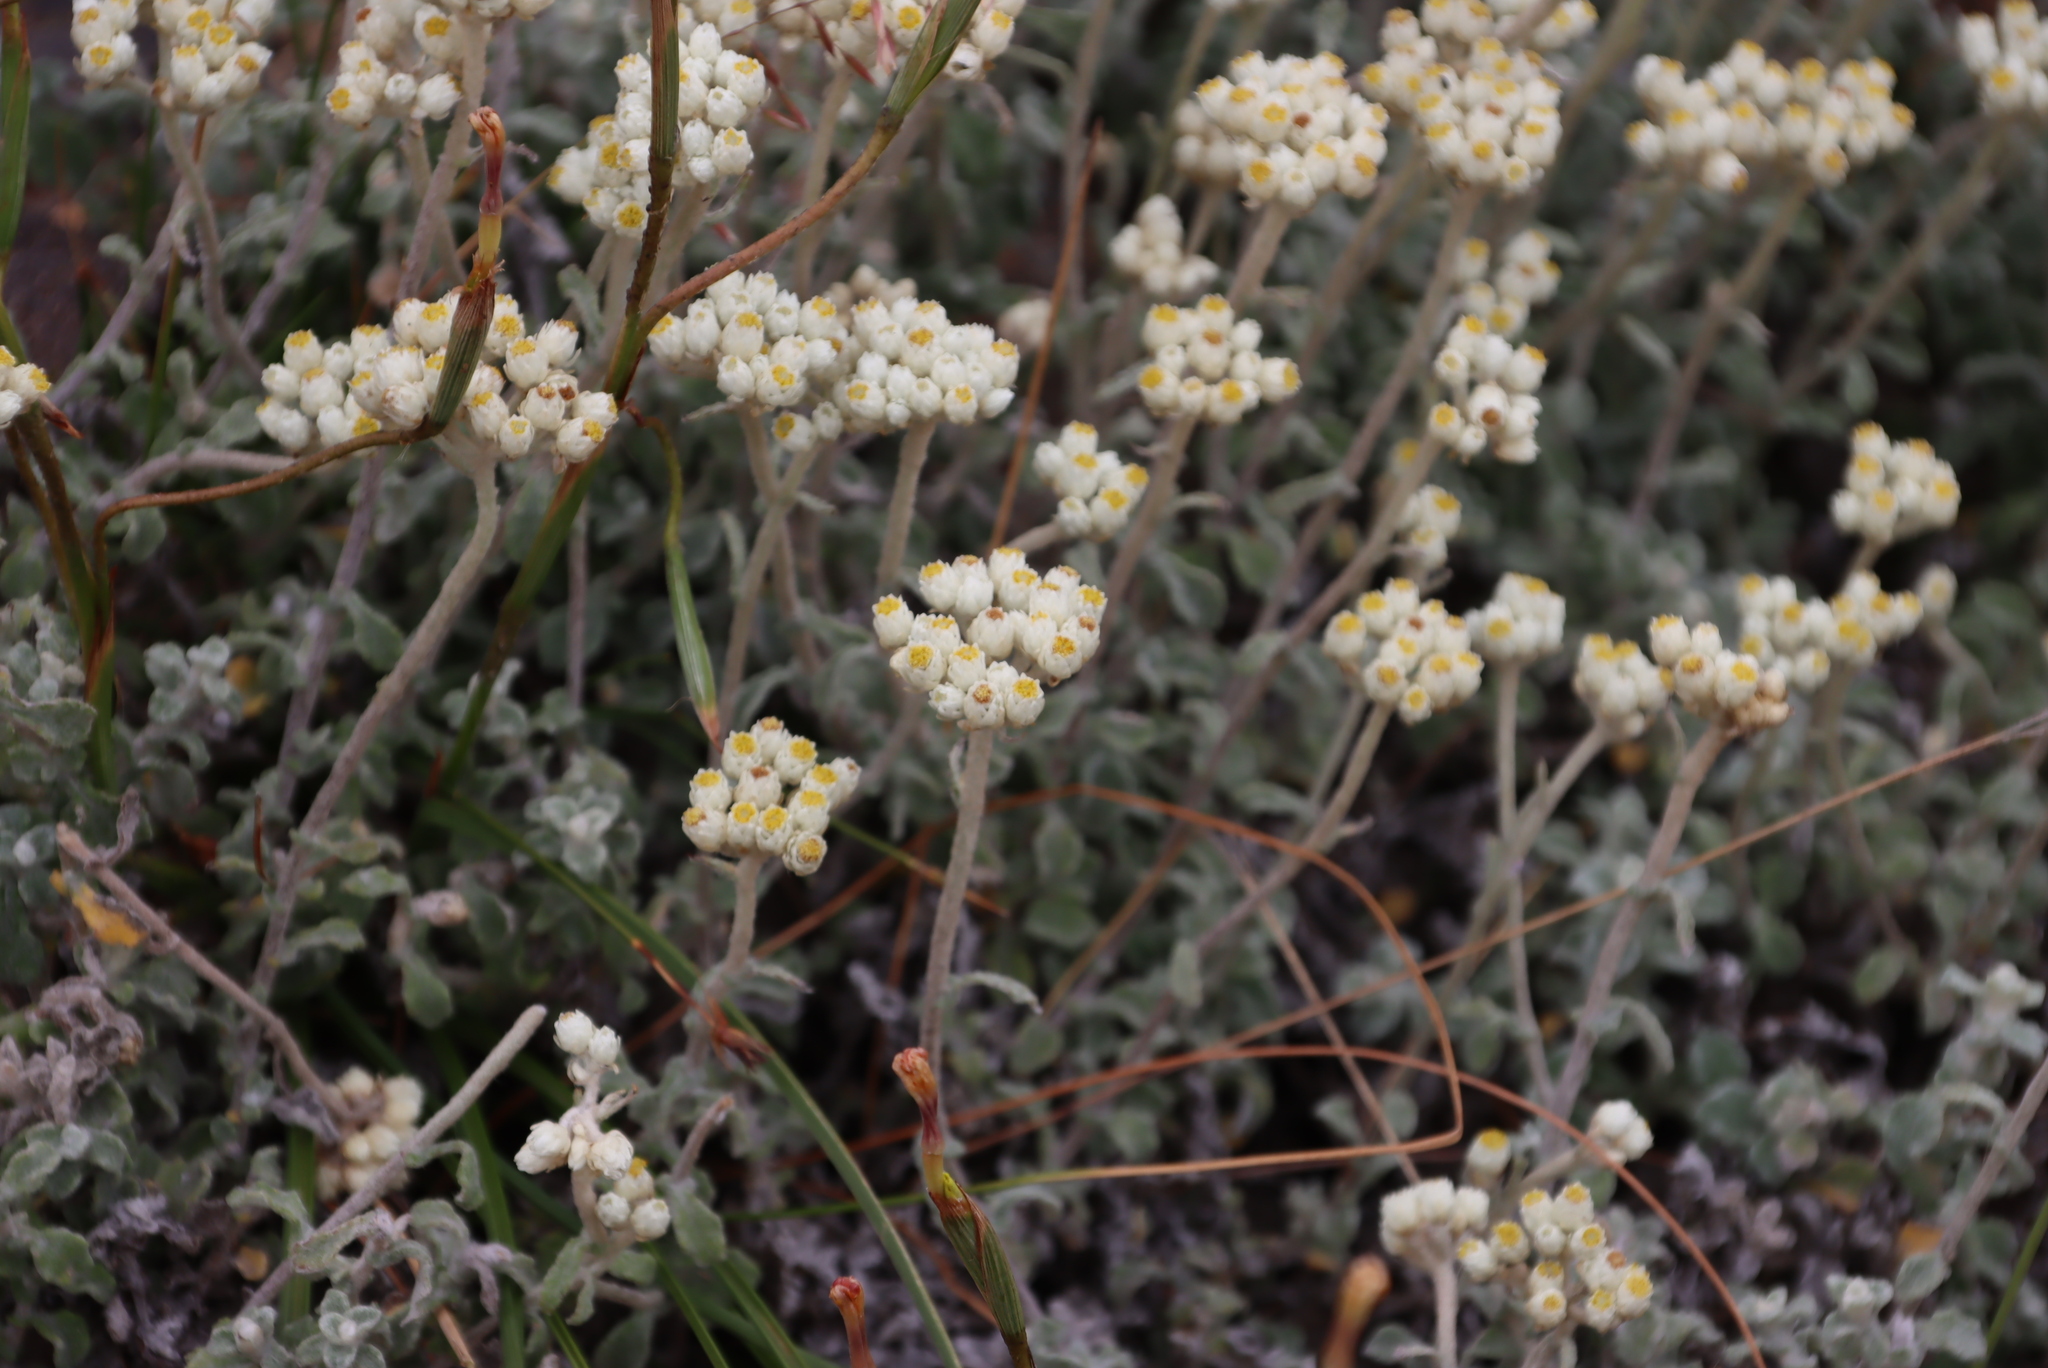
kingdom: Plantae
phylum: Tracheophyta
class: Magnoliopsida
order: Asterales
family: Asteraceae
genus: Helichrysum
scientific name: Helichrysum pandurifolium
